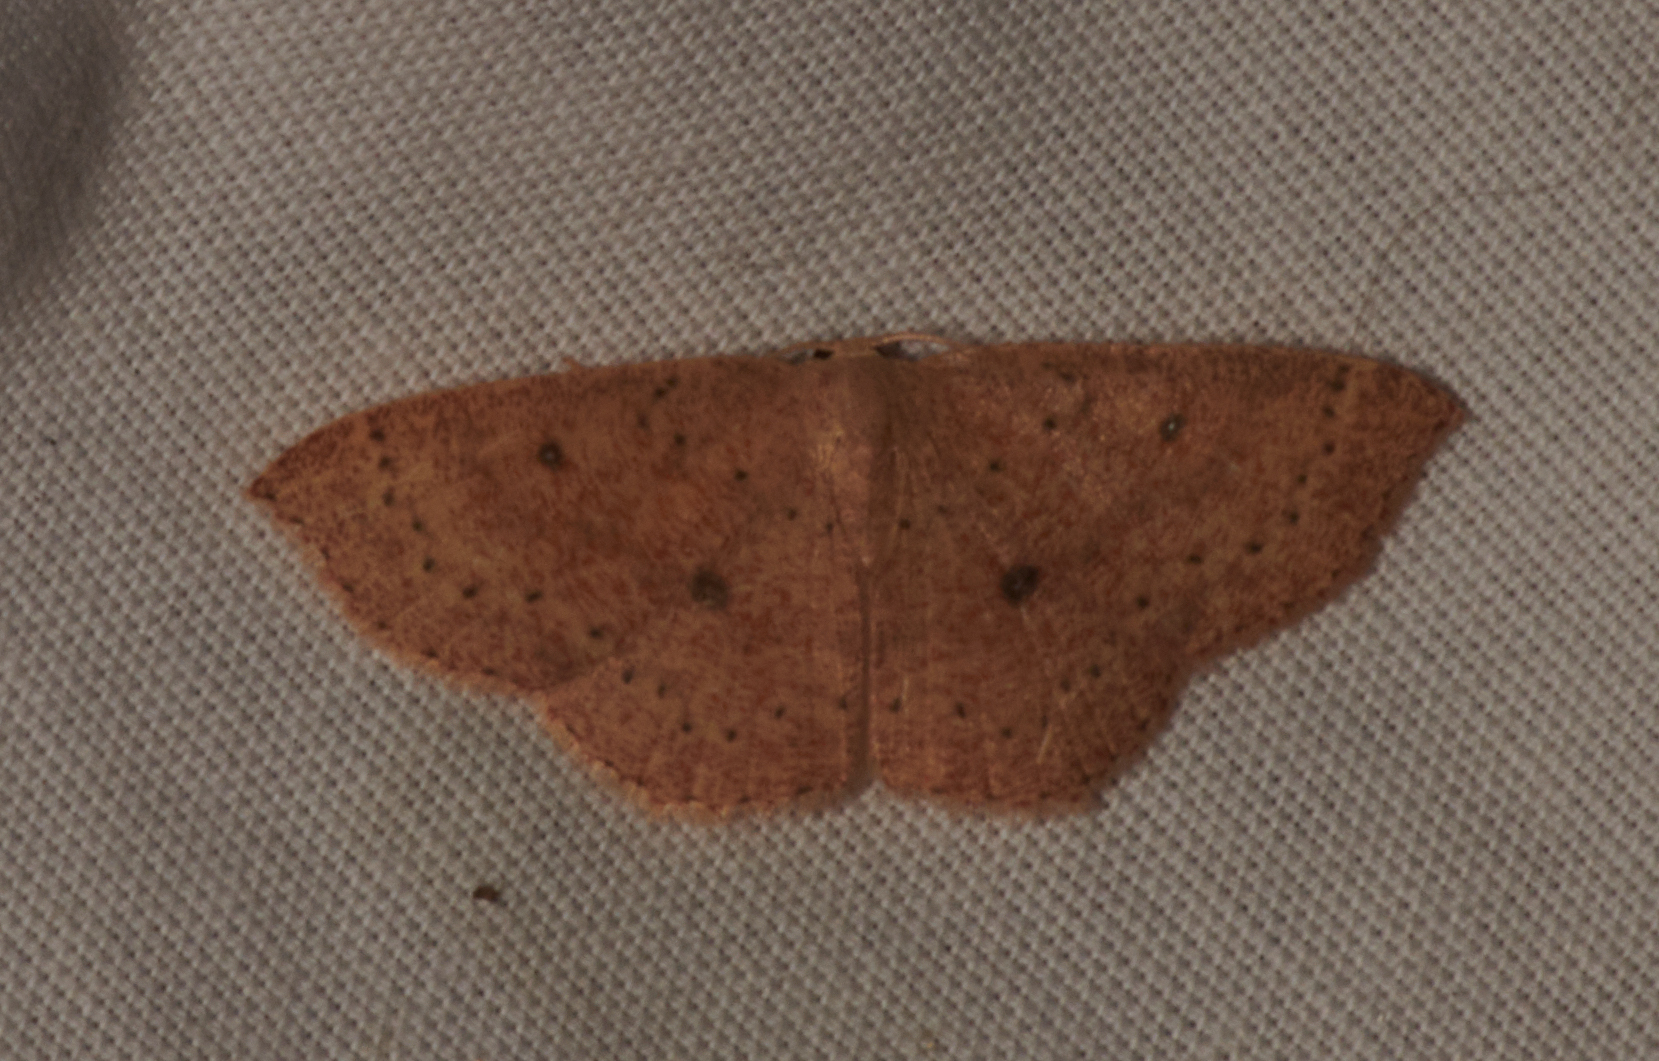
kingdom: Animalia
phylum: Arthropoda
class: Insecta
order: Lepidoptera
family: Geometridae
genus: Cyclophora
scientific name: Cyclophora packardi
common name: Packard's wave
